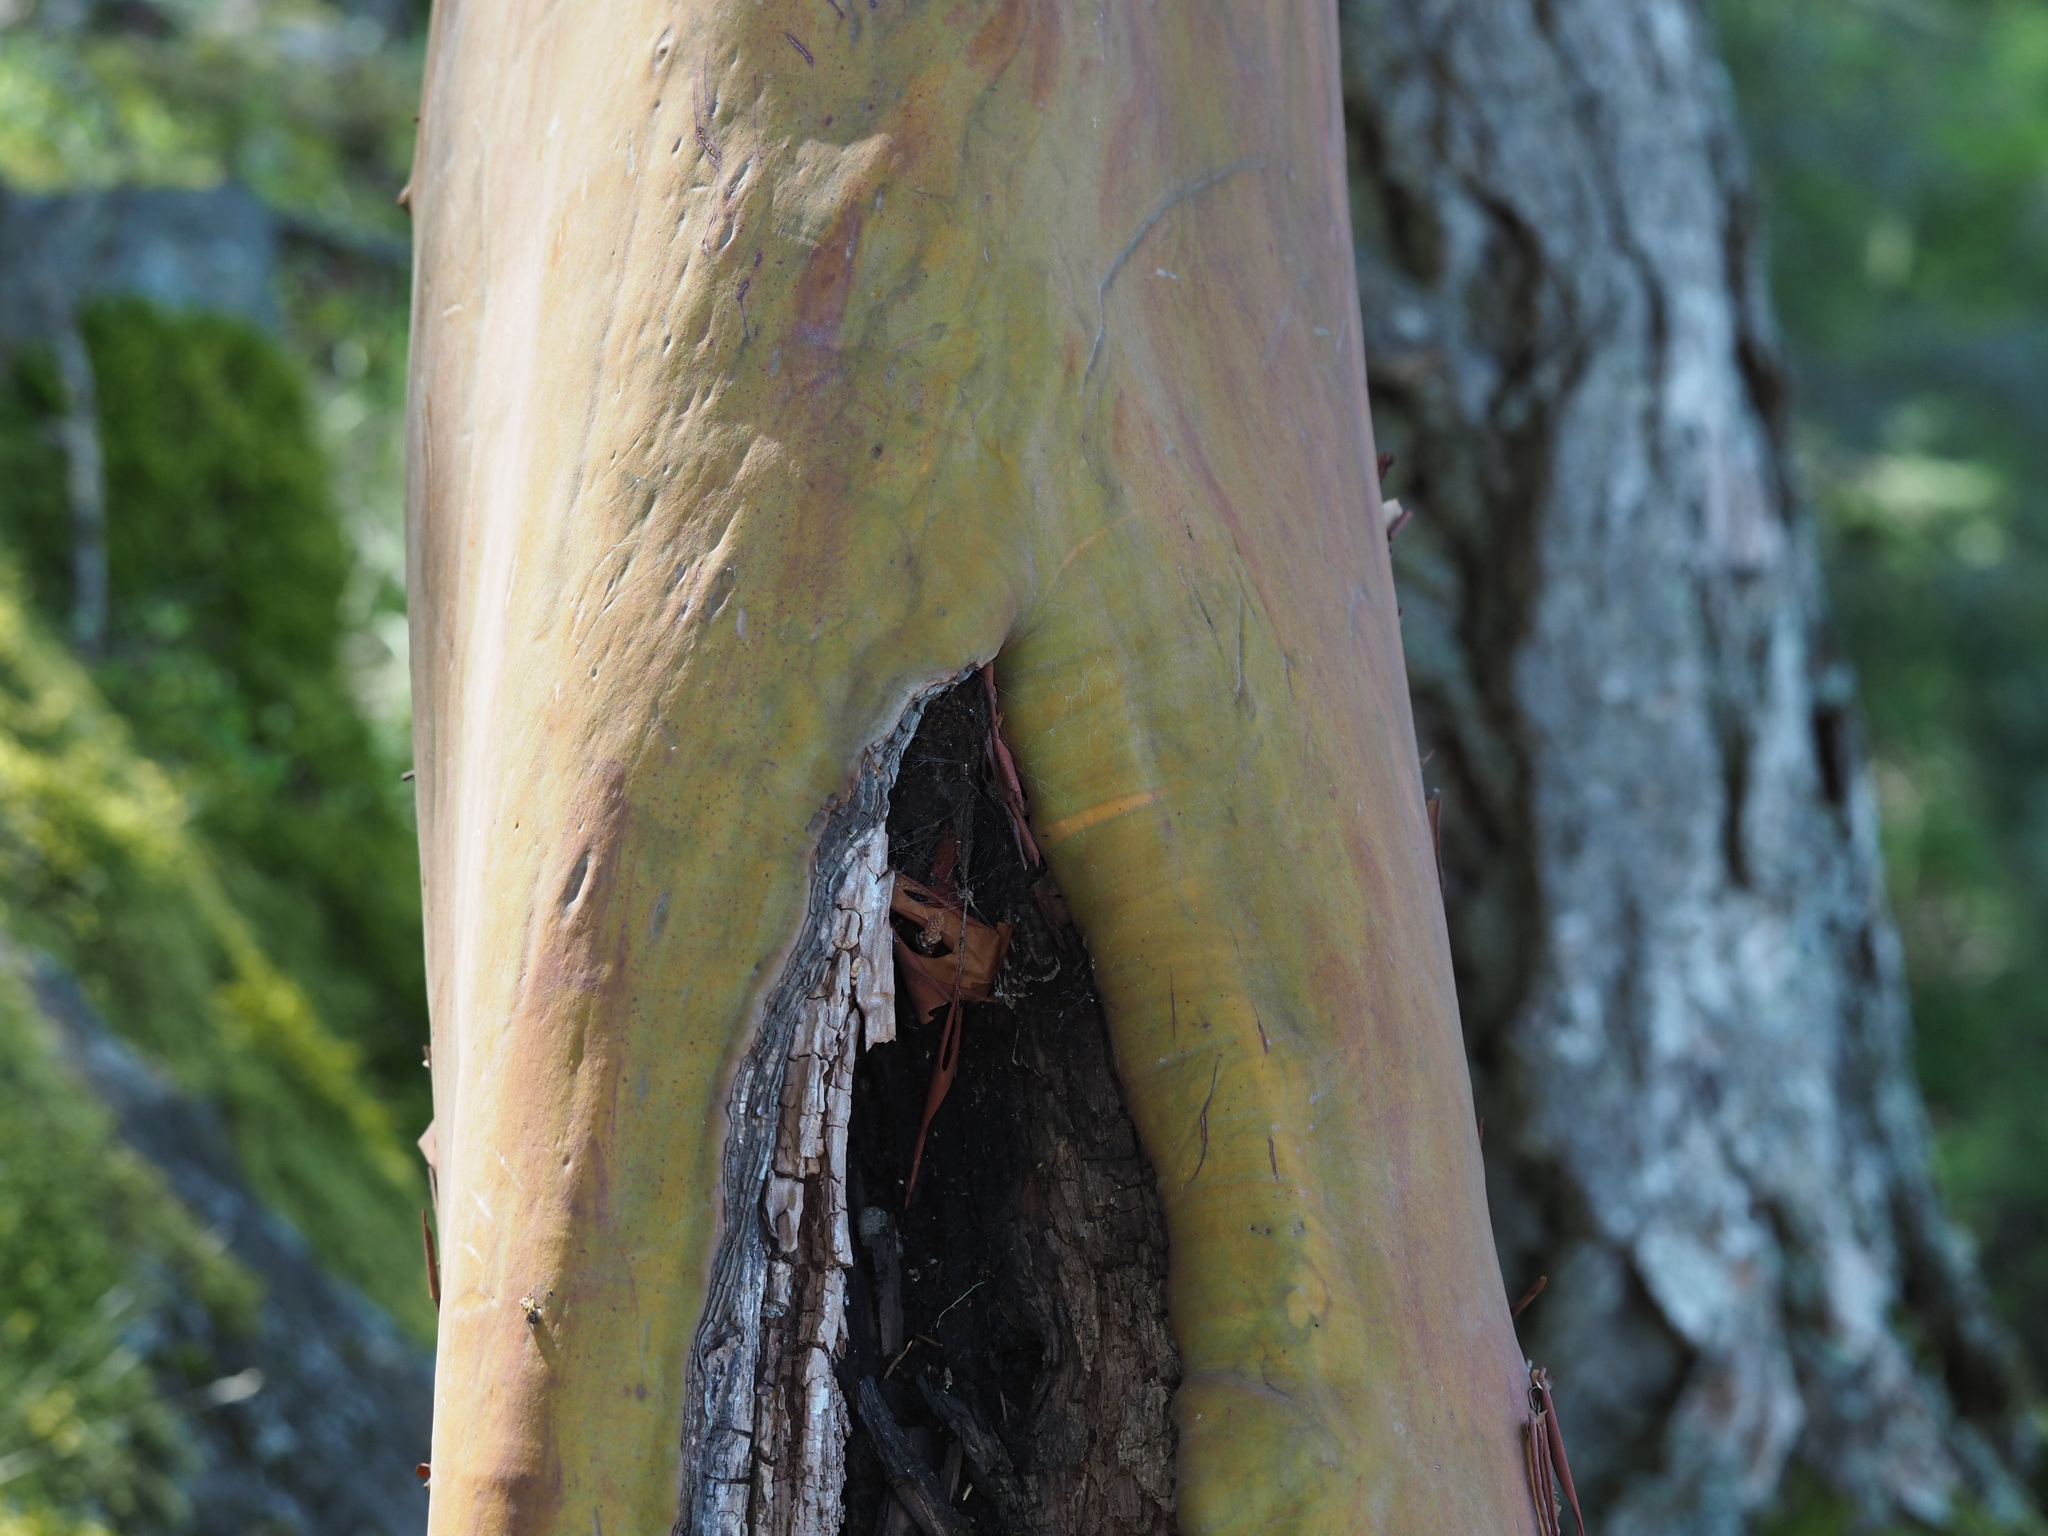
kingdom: Plantae
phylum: Tracheophyta
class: Magnoliopsida
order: Ericales
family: Ericaceae
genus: Arbutus
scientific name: Arbutus menziesii
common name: Pacific madrone
